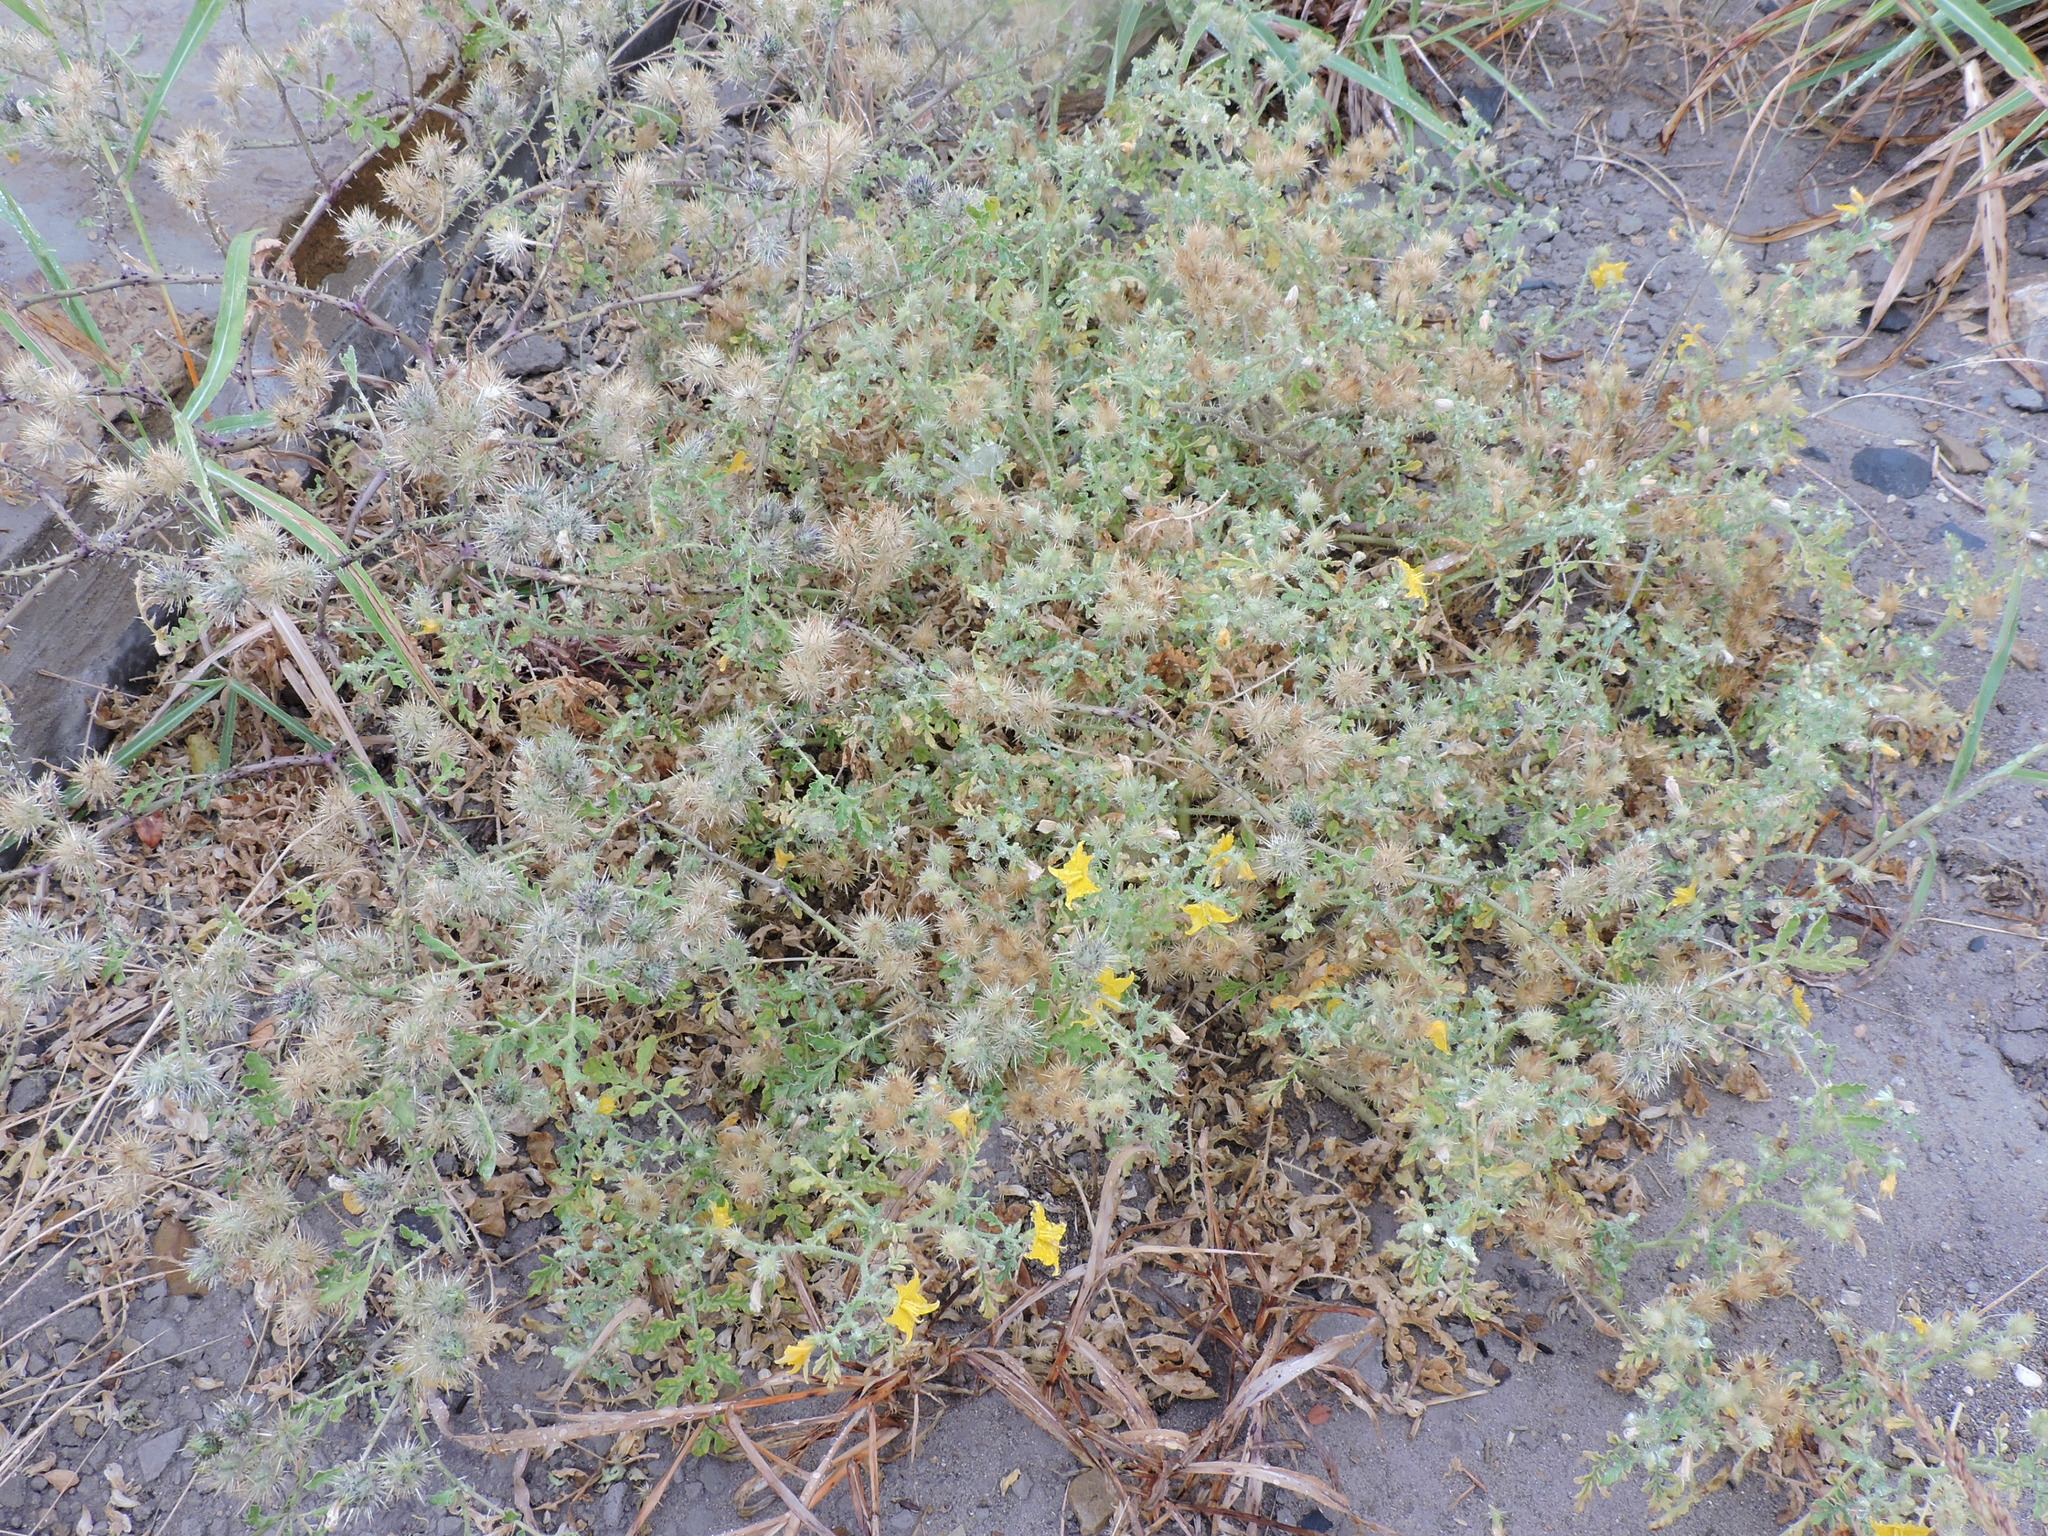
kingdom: Plantae
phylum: Tracheophyta
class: Magnoliopsida
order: Solanales
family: Solanaceae
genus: Solanum
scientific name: Solanum angustifolium
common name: Buffalobur nightshade
